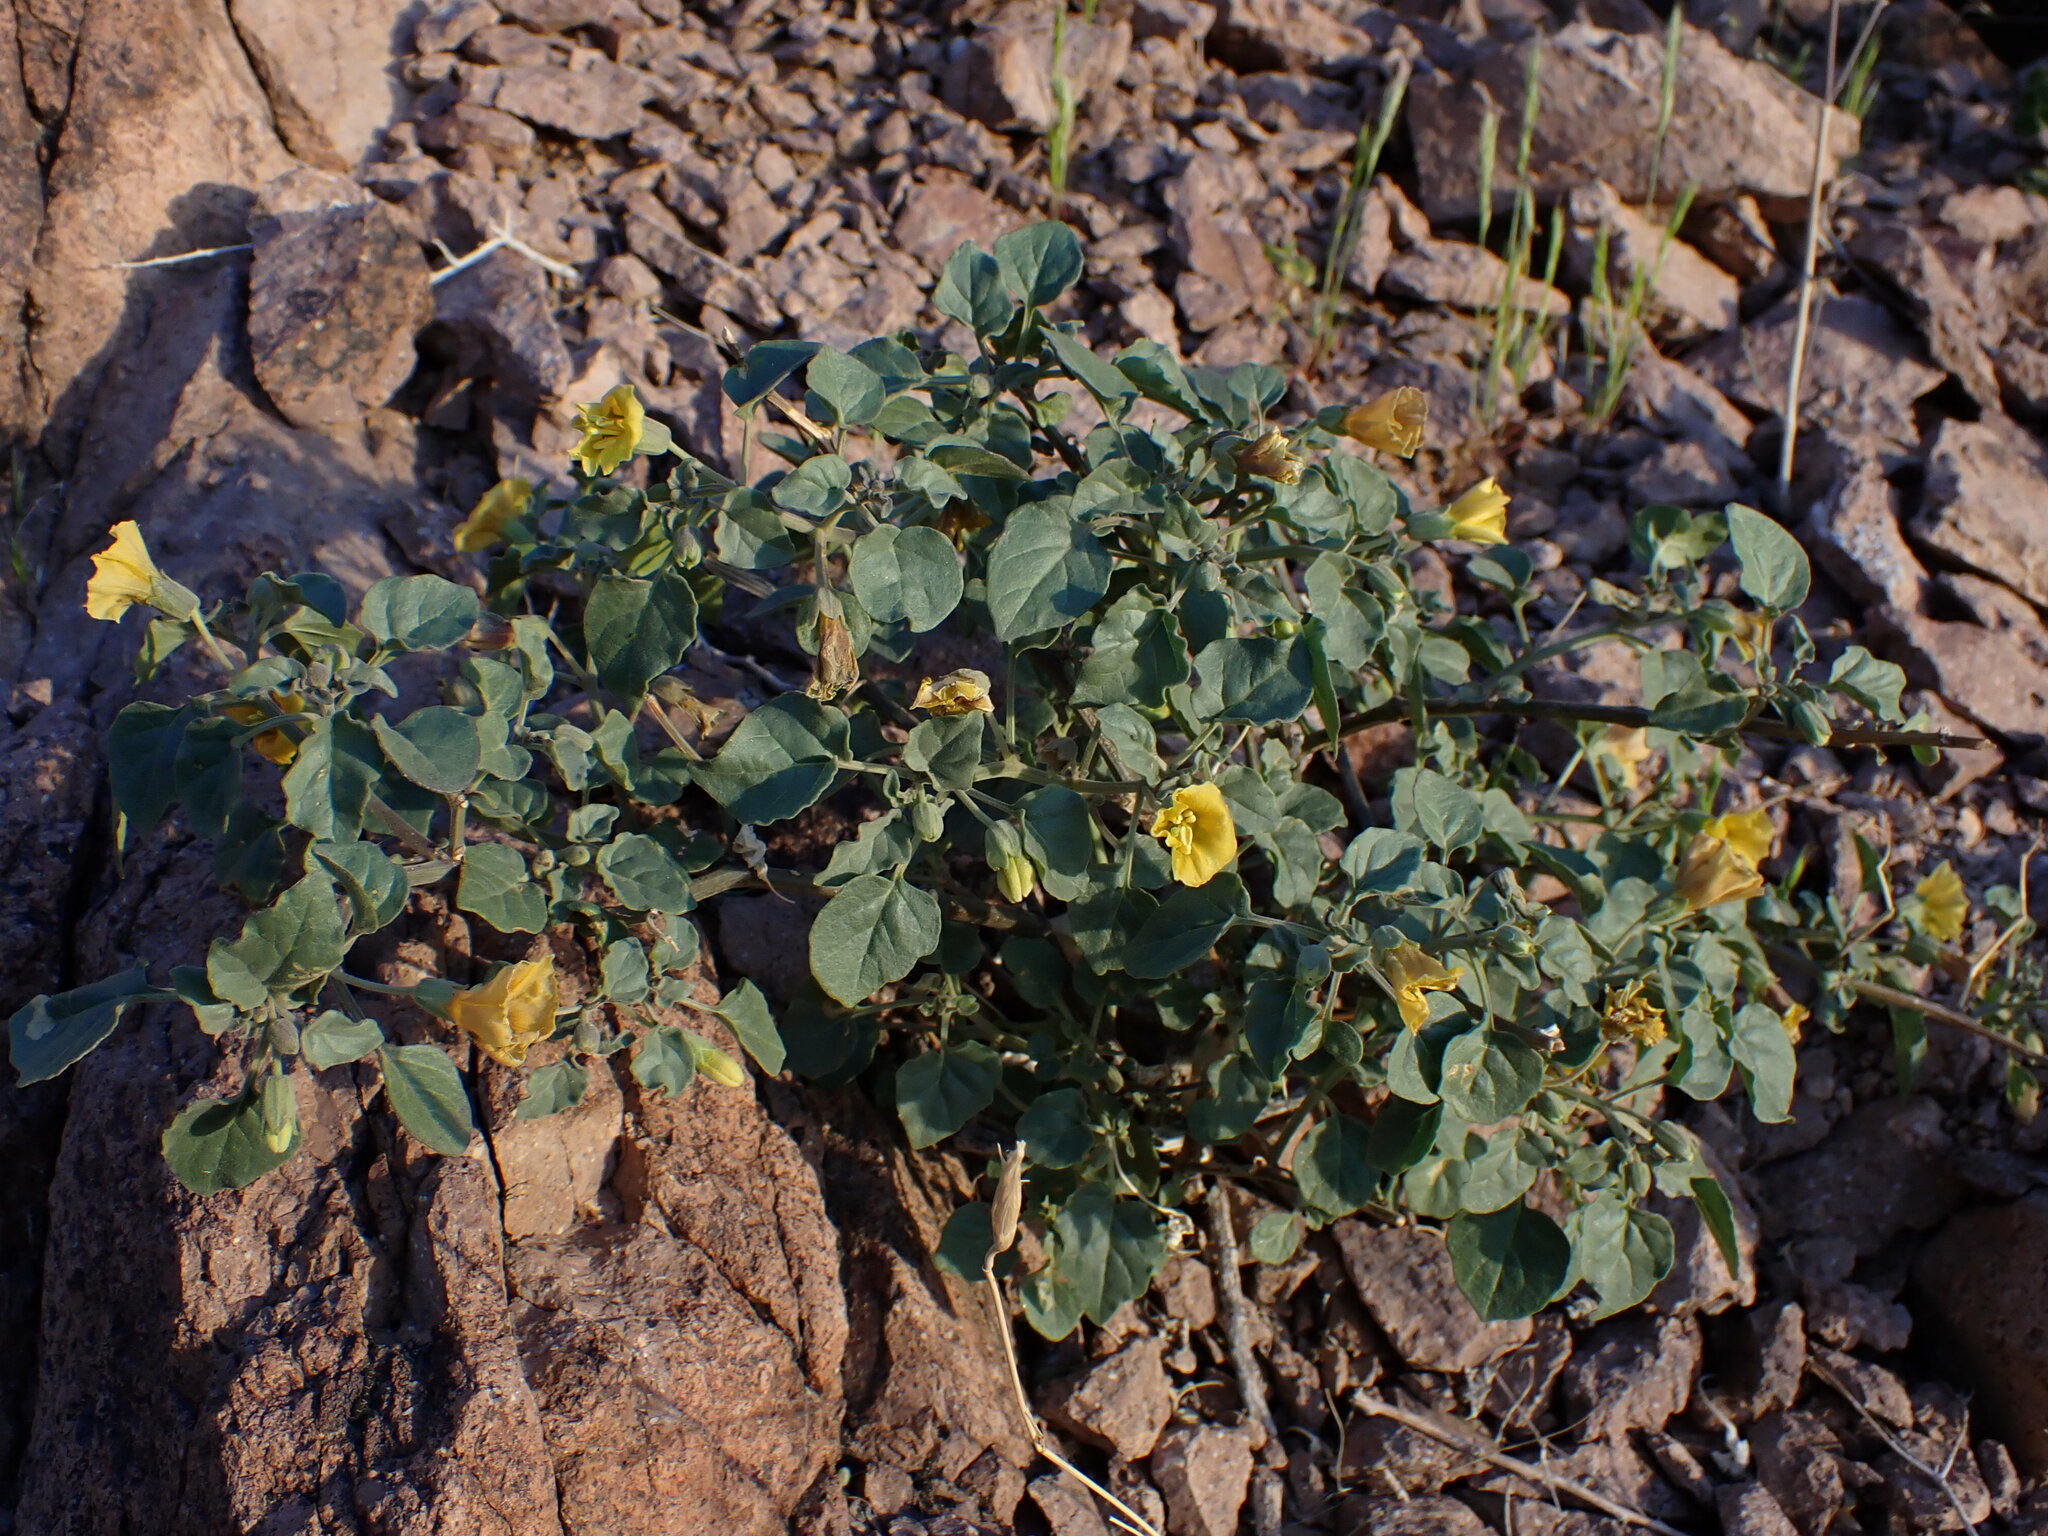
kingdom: Plantae
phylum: Tracheophyta
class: Magnoliopsida
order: Solanales
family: Solanaceae
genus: Physalis
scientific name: Physalis crassifolia
